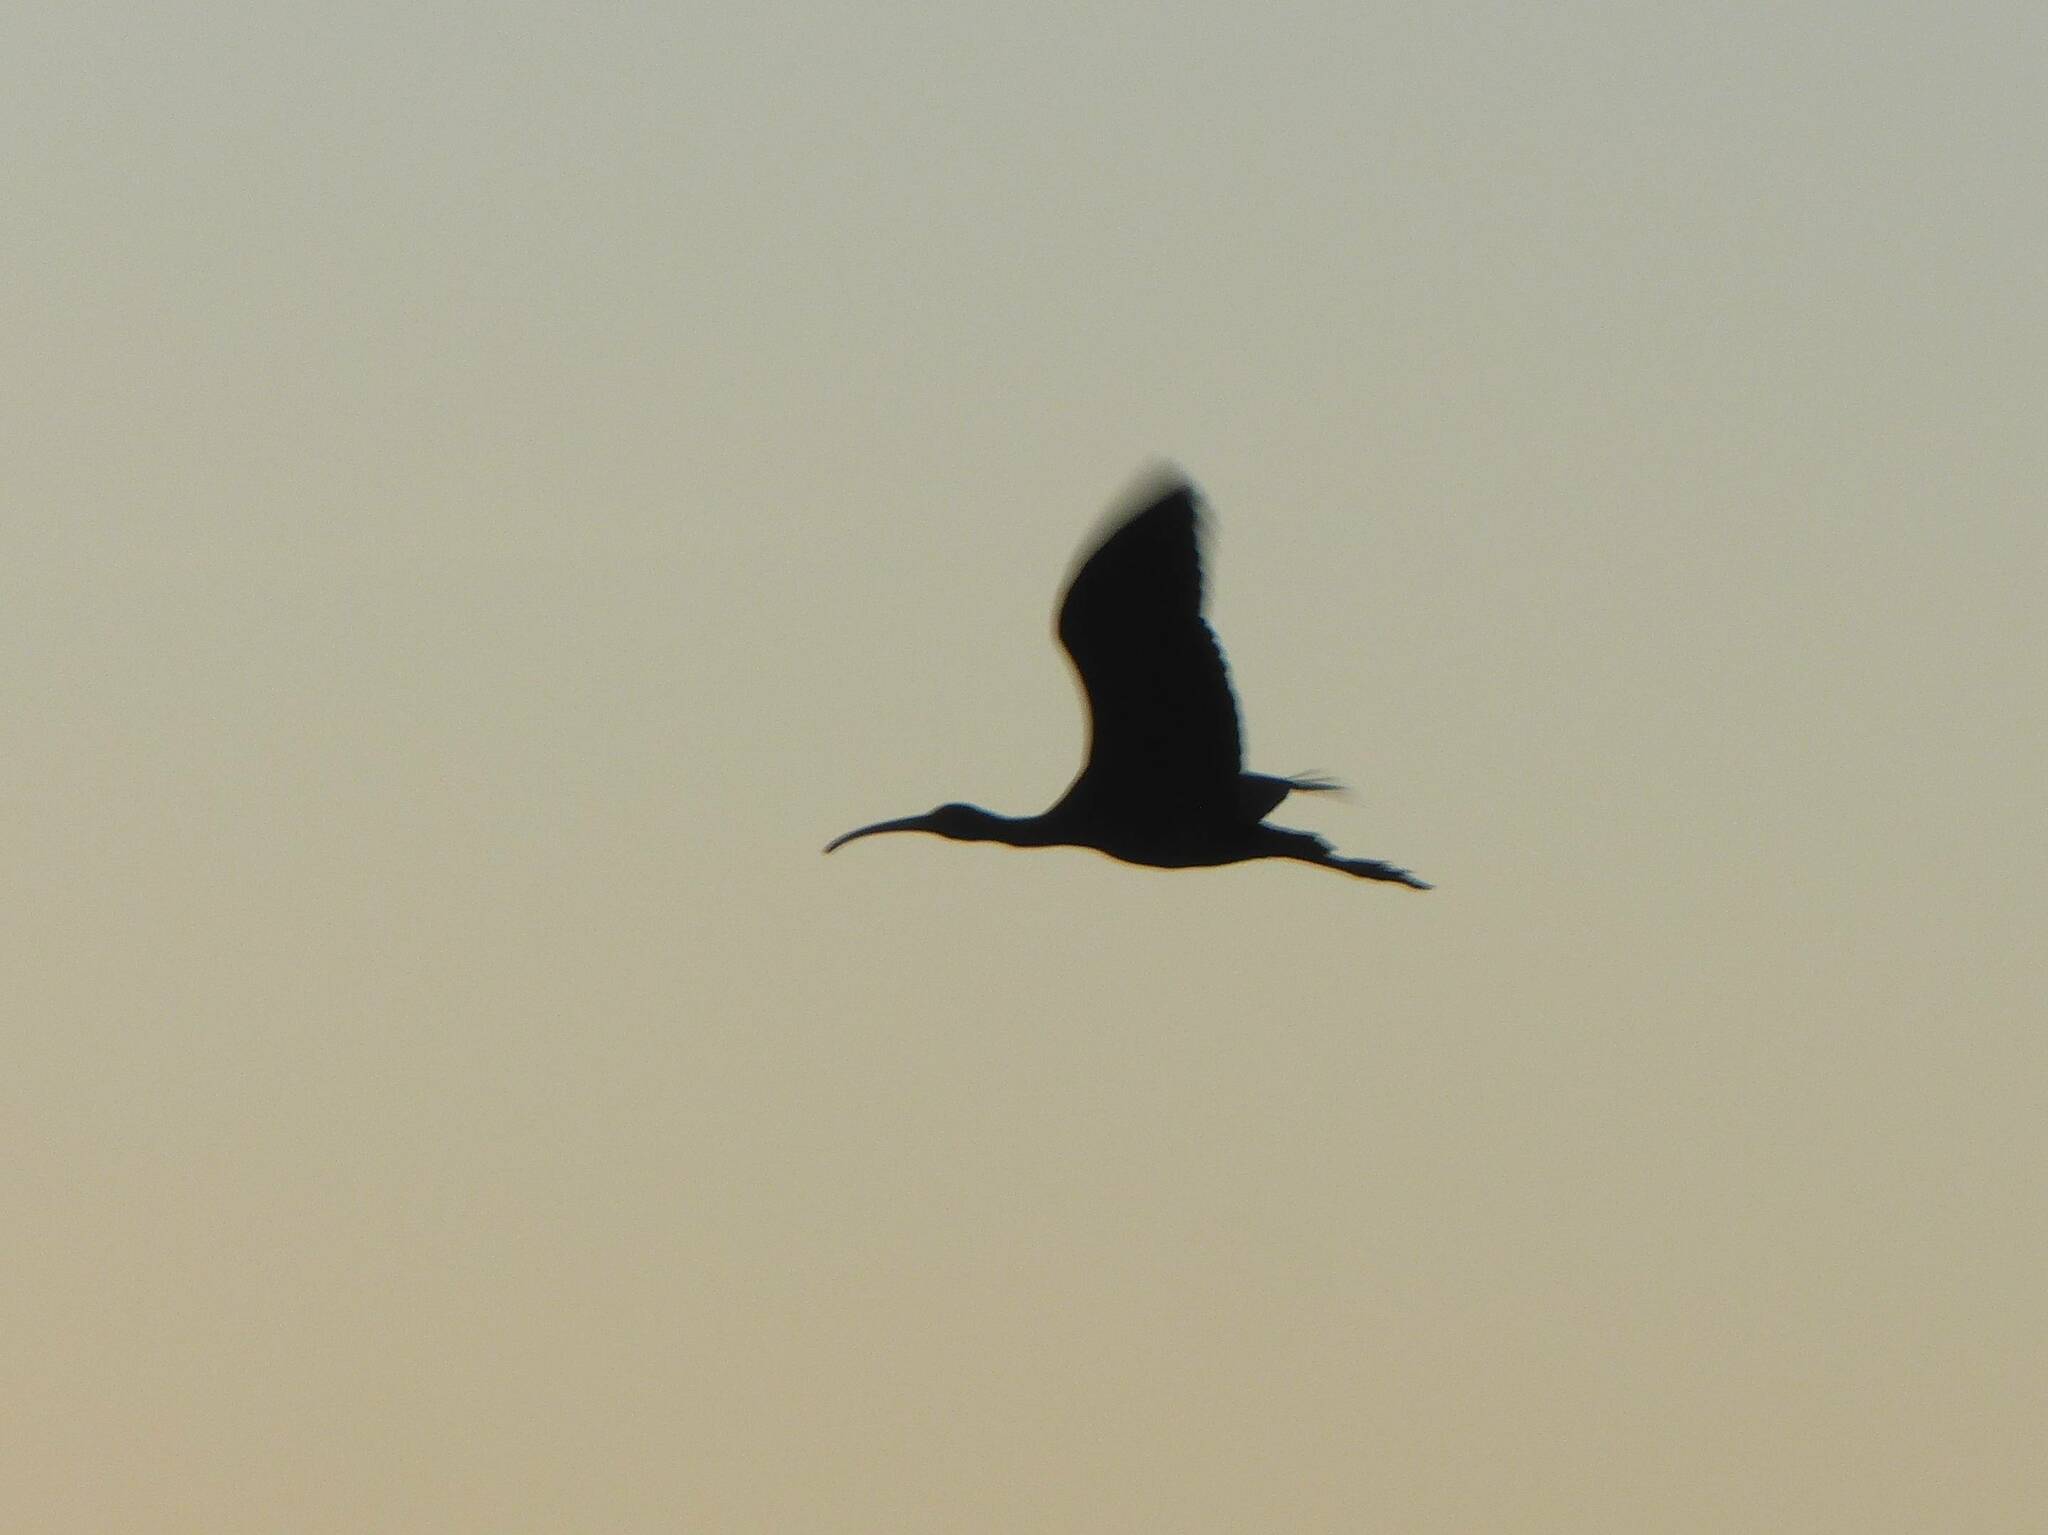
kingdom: Animalia
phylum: Chordata
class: Aves
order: Pelecaniformes
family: Threskiornithidae
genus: Plegadis
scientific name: Plegadis falcinellus
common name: Glossy ibis
